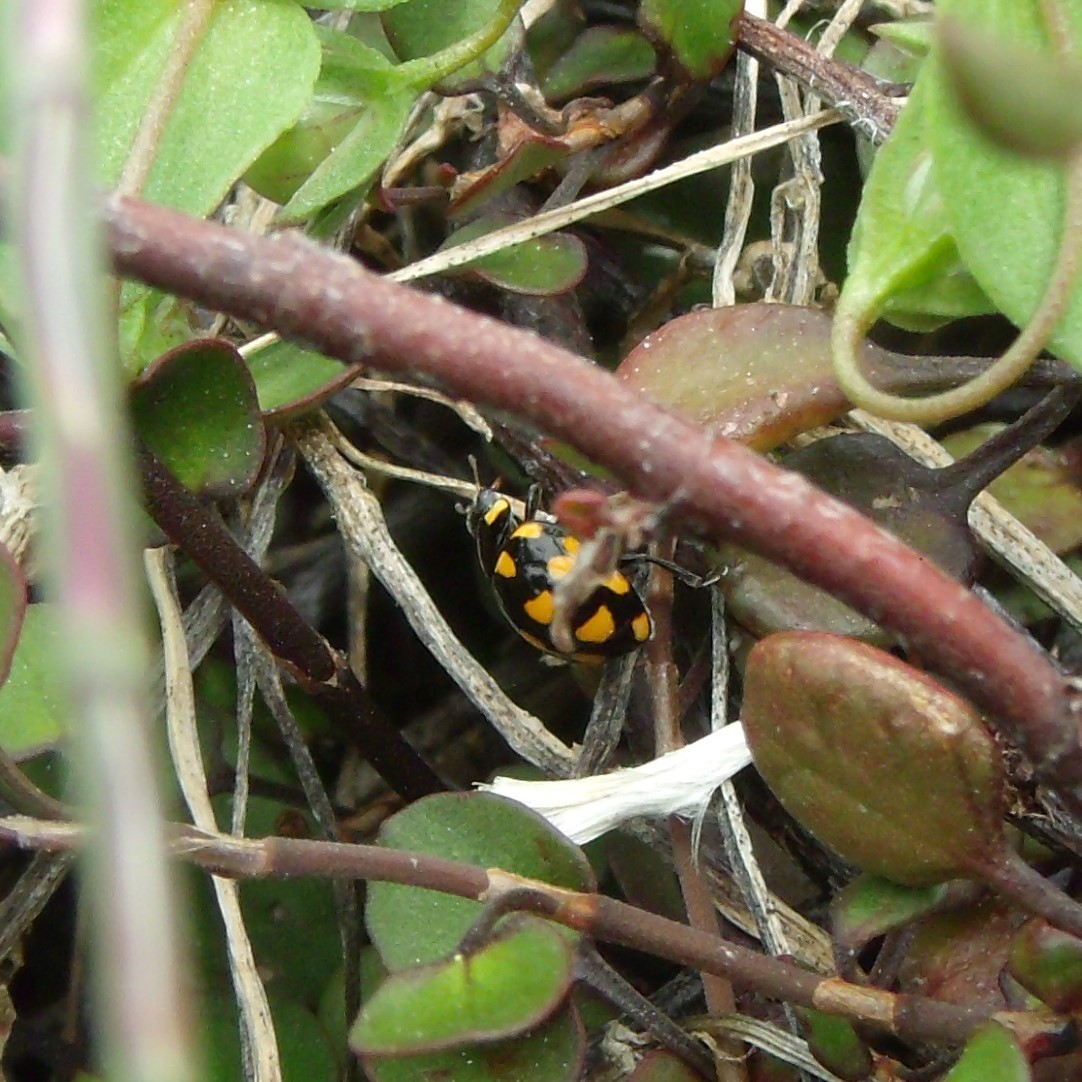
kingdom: Animalia
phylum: Arthropoda
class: Insecta
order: Coleoptera
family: Coccinellidae
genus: Coccinella
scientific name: Coccinella leonina
